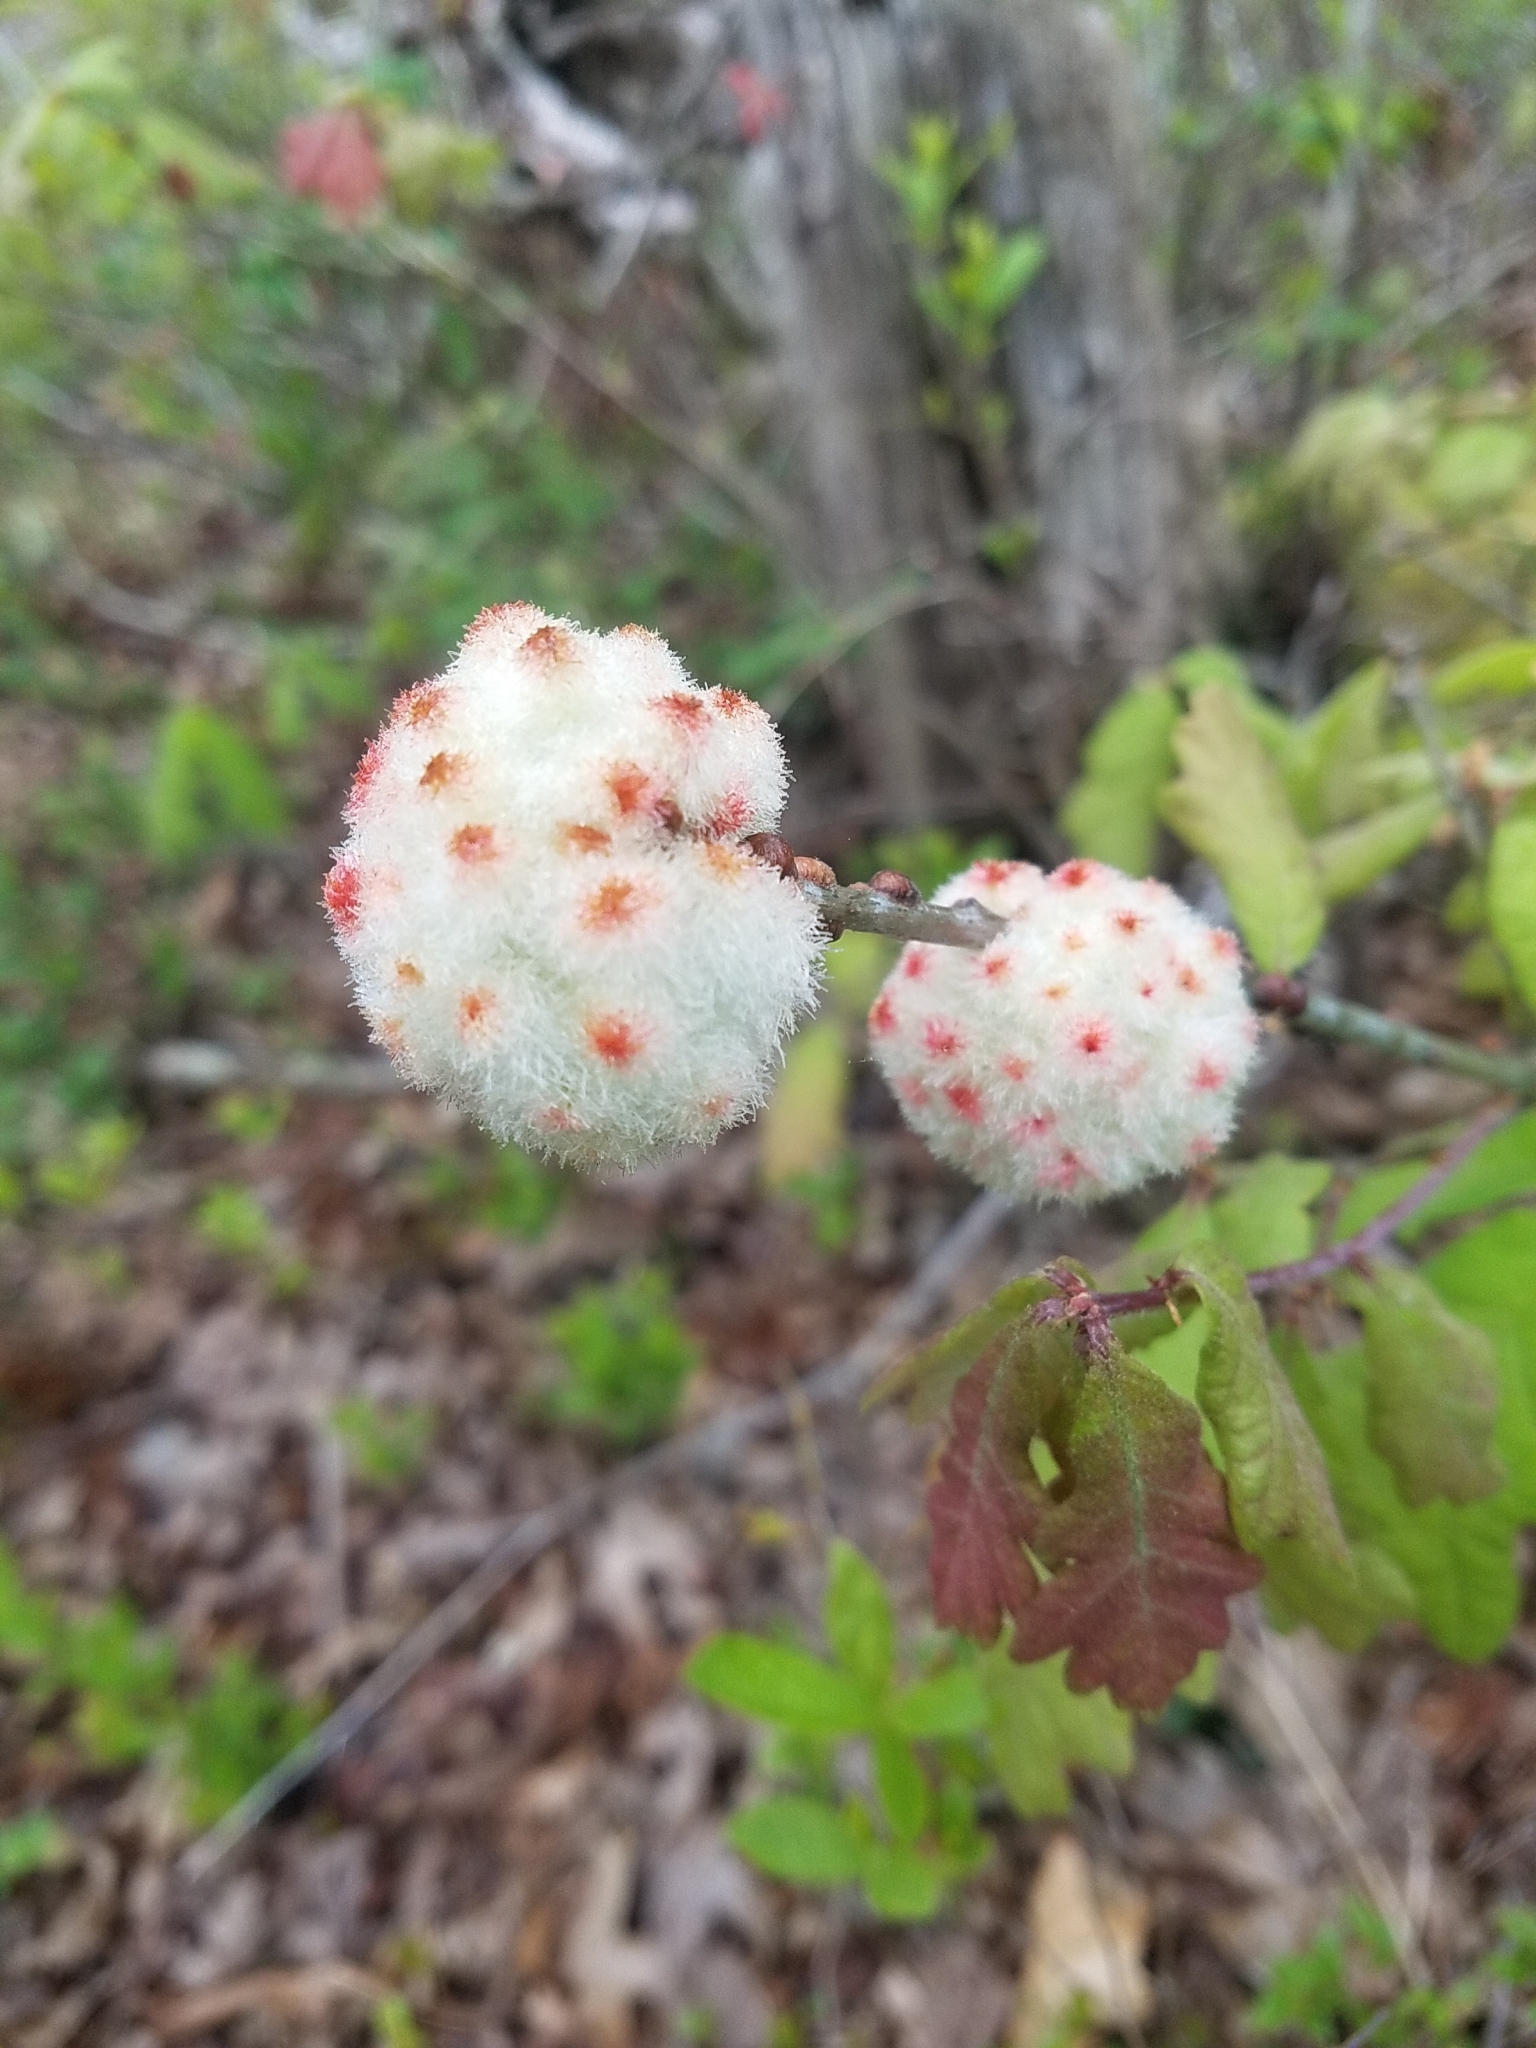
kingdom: Animalia
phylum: Arthropoda
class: Insecta
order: Hymenoptera
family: Cynipidae
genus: Callirhytis
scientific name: Callirhytis
